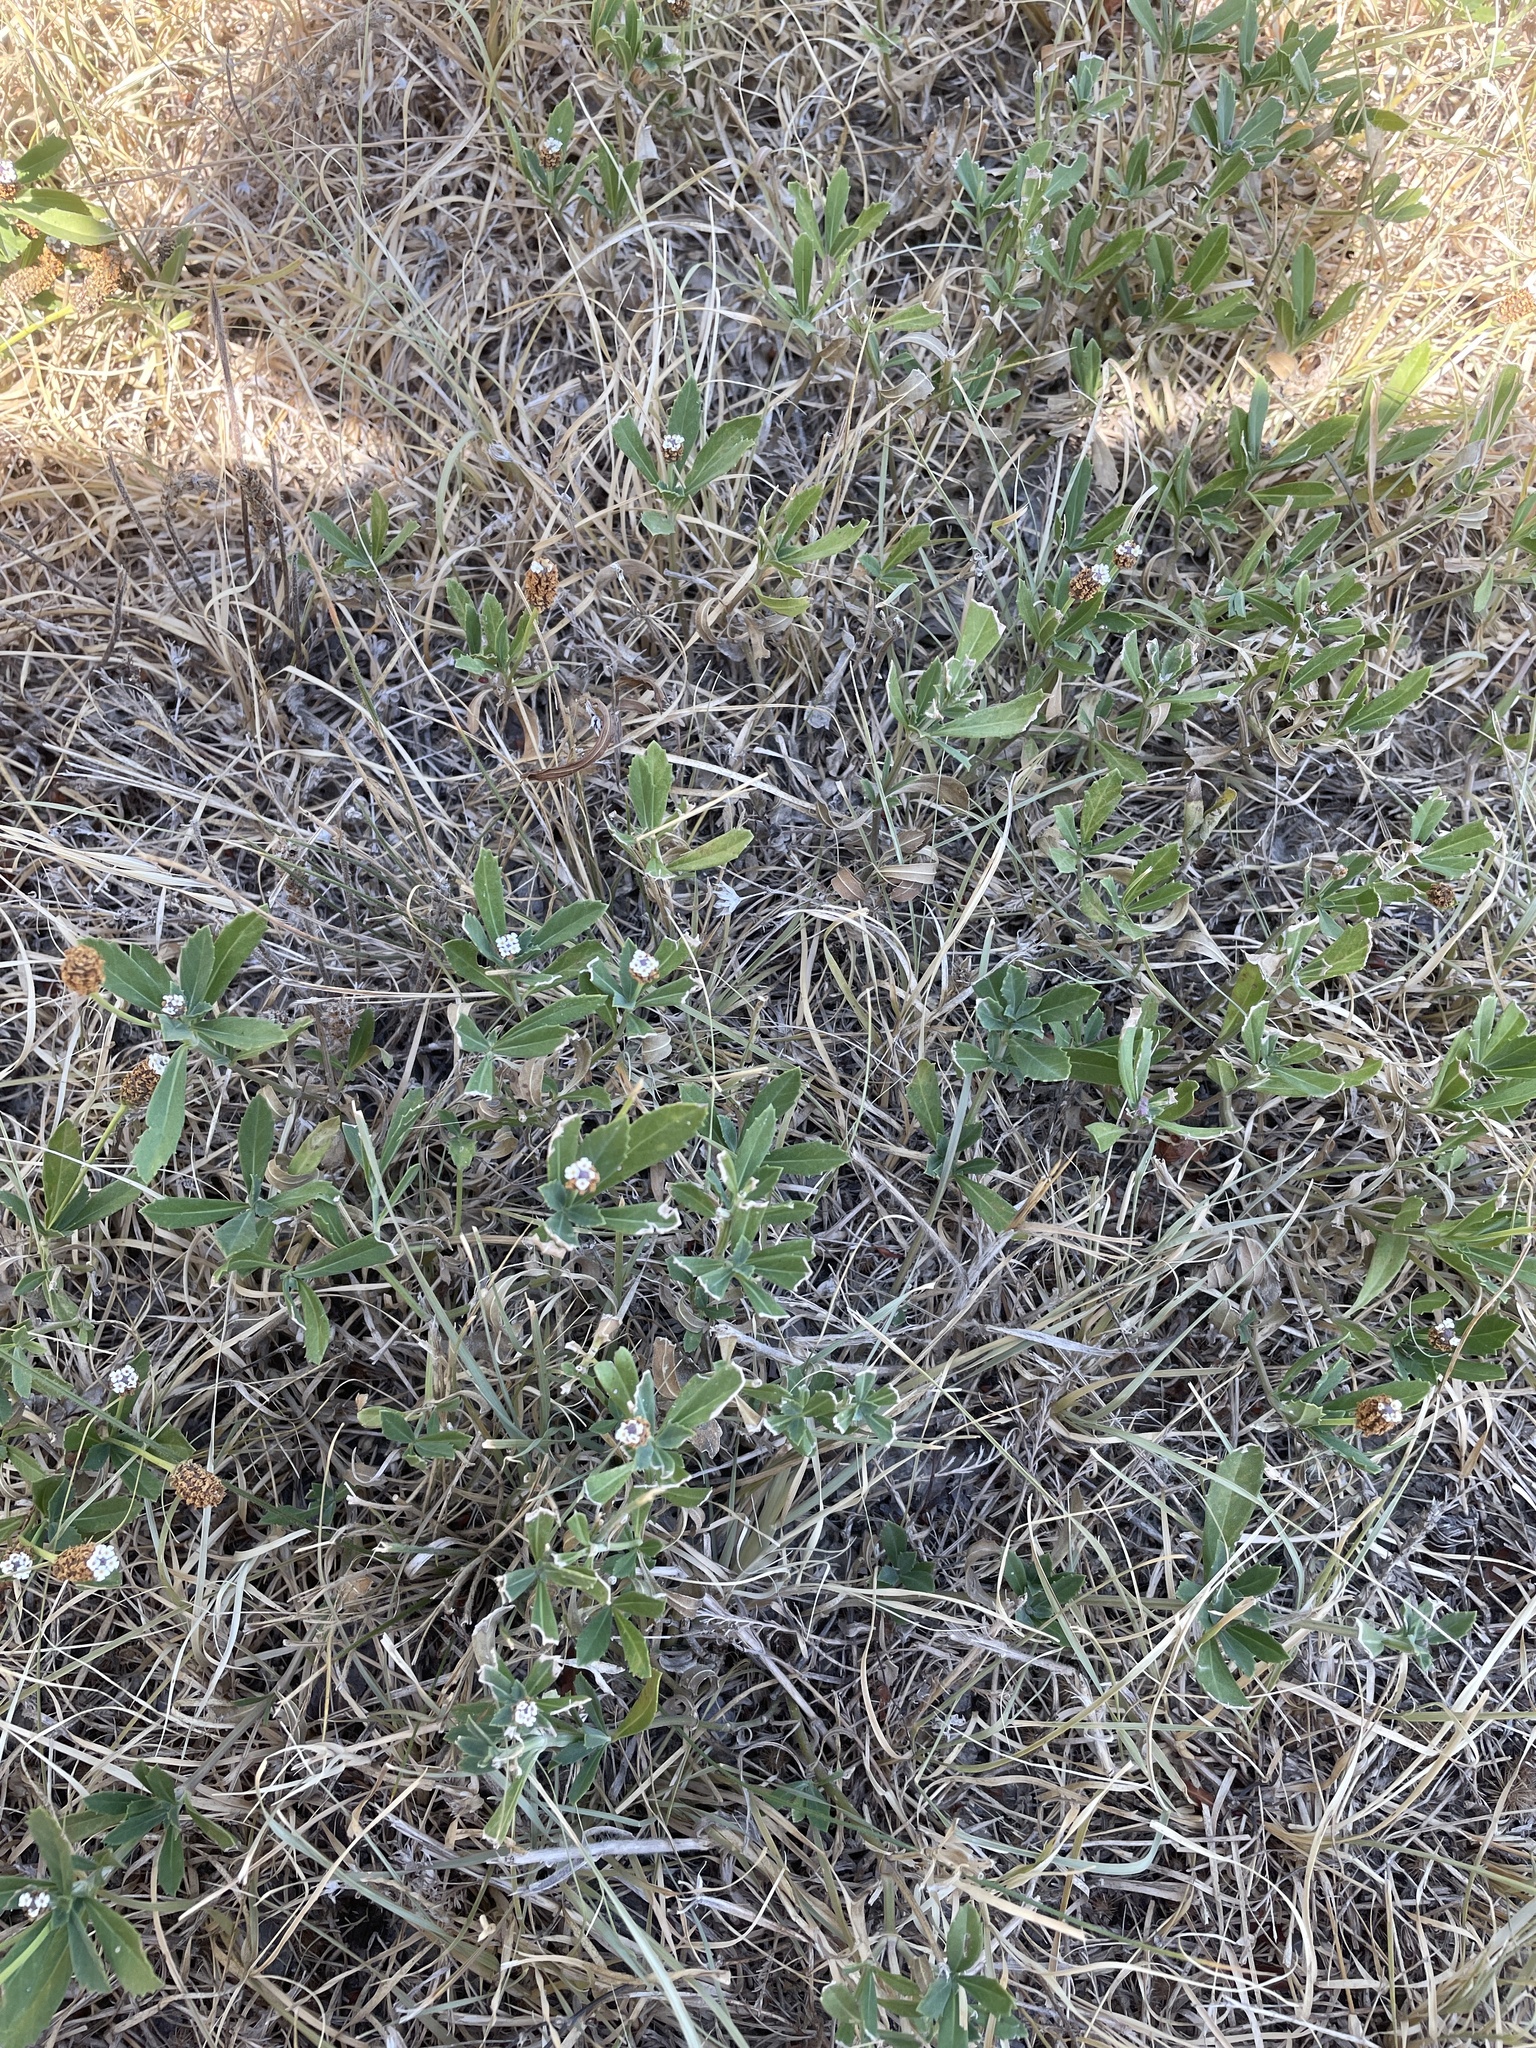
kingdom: Plantae
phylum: Tracheophyta
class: Magnoliopsida
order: Lamiales
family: Verbenaceae
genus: Phyla
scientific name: Phyla nodiflora
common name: Frogfruit
